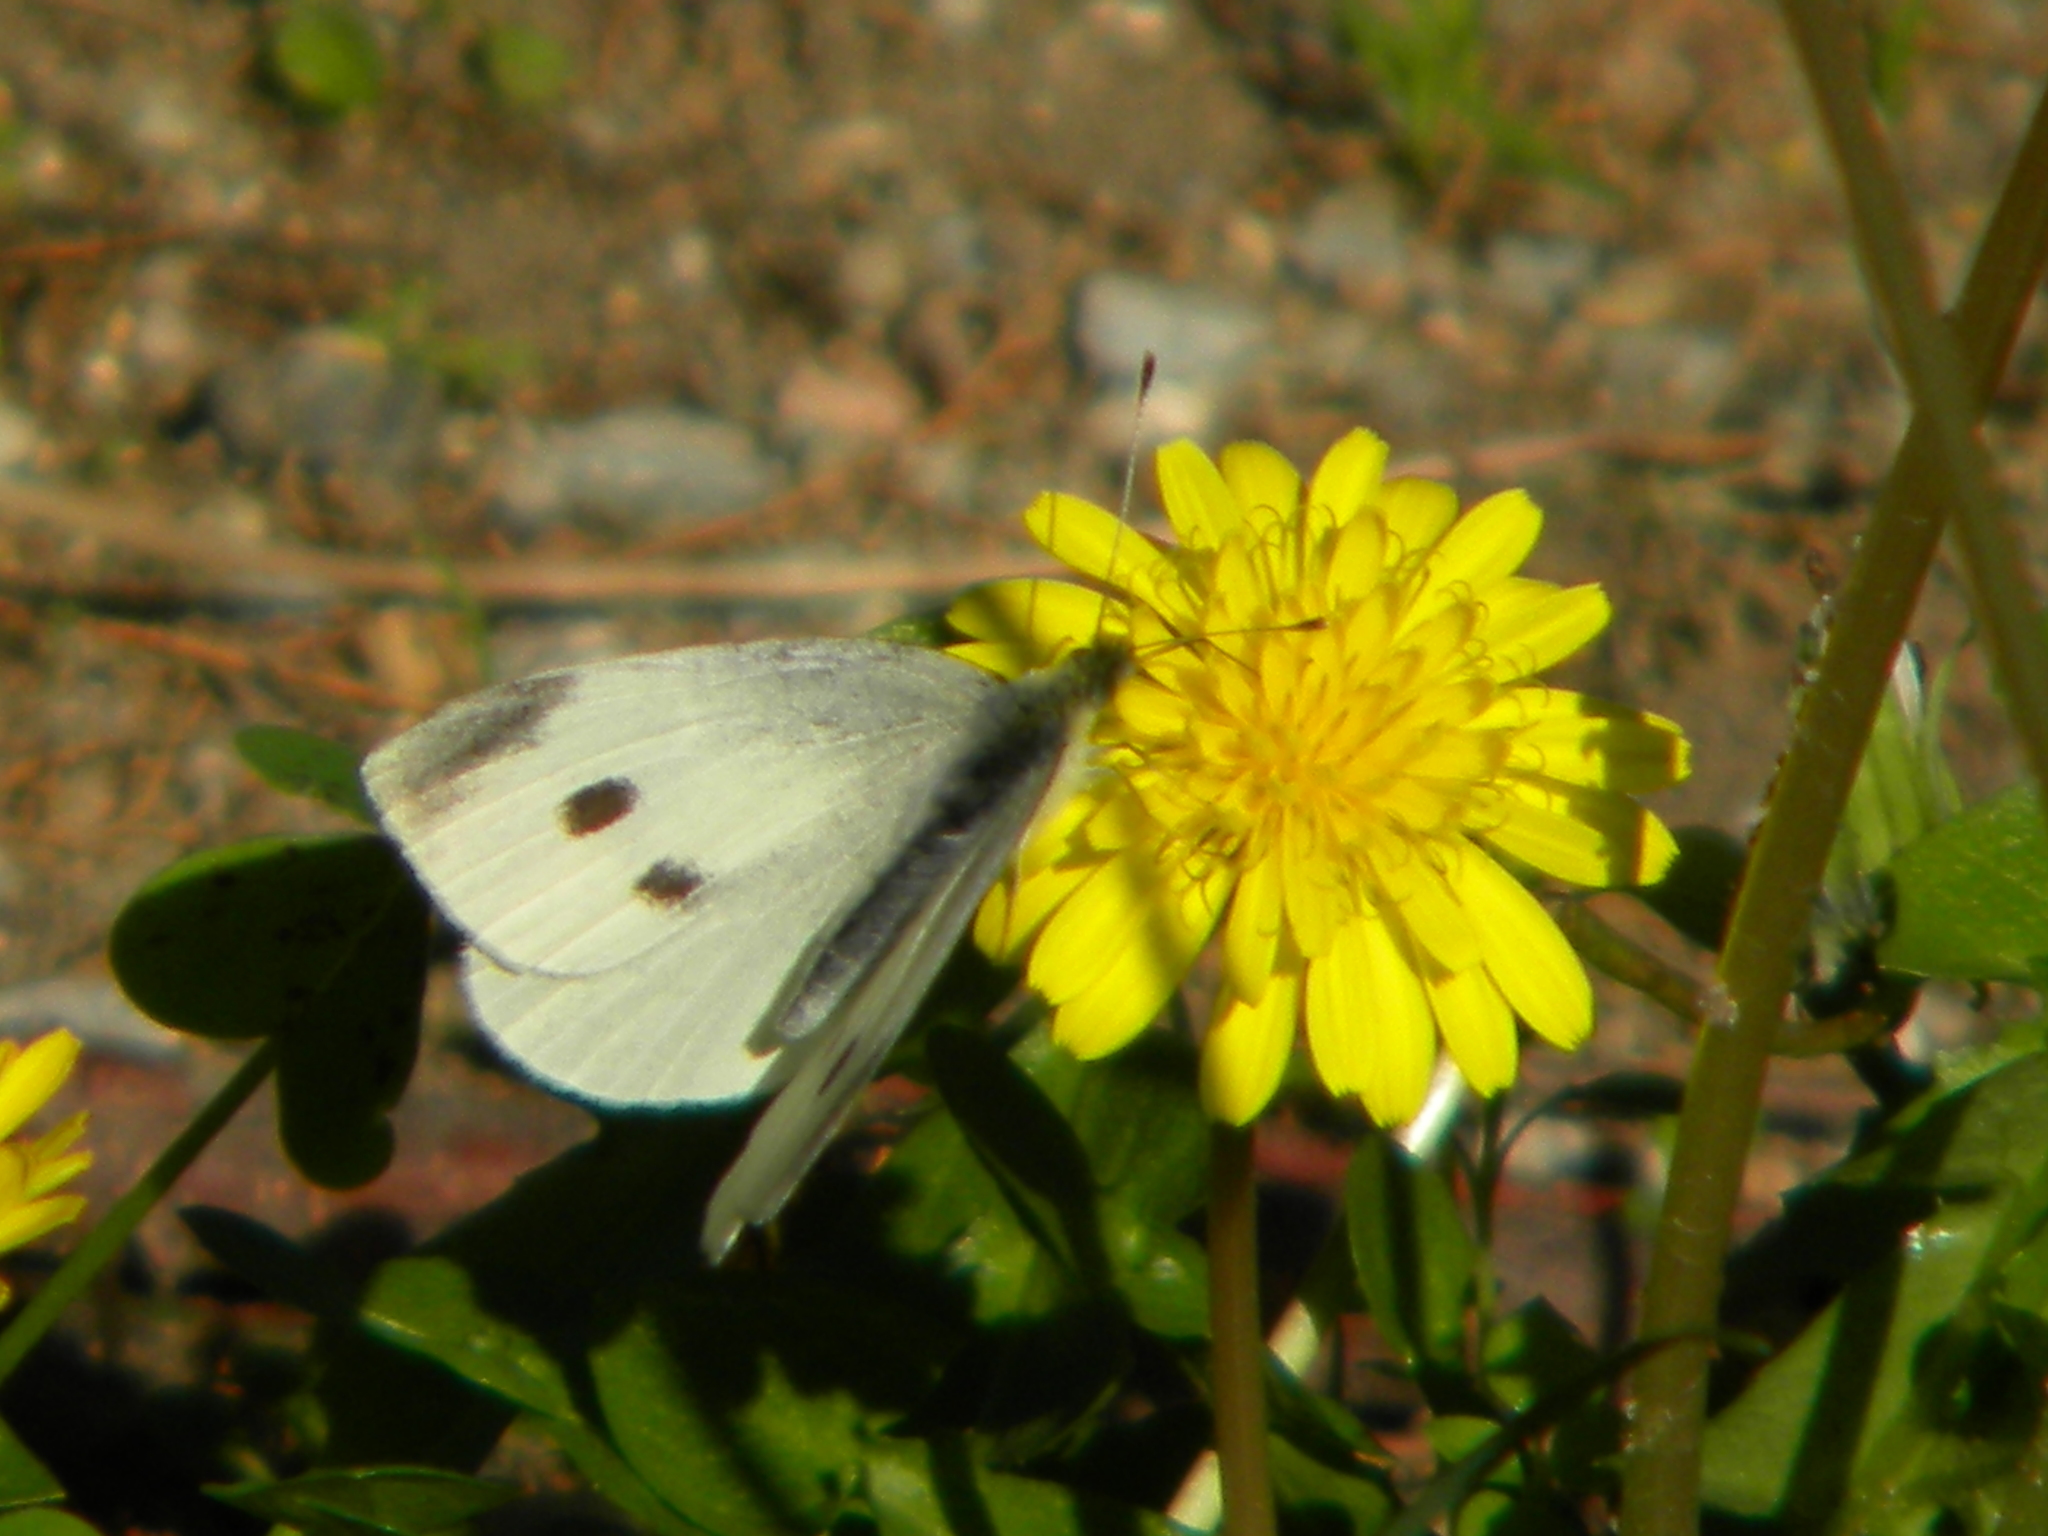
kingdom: Animalia
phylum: Arthropoda
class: Insecta
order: Lepidoptera
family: Pieridae
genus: Pieris
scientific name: Pieris rapae
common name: Small white
